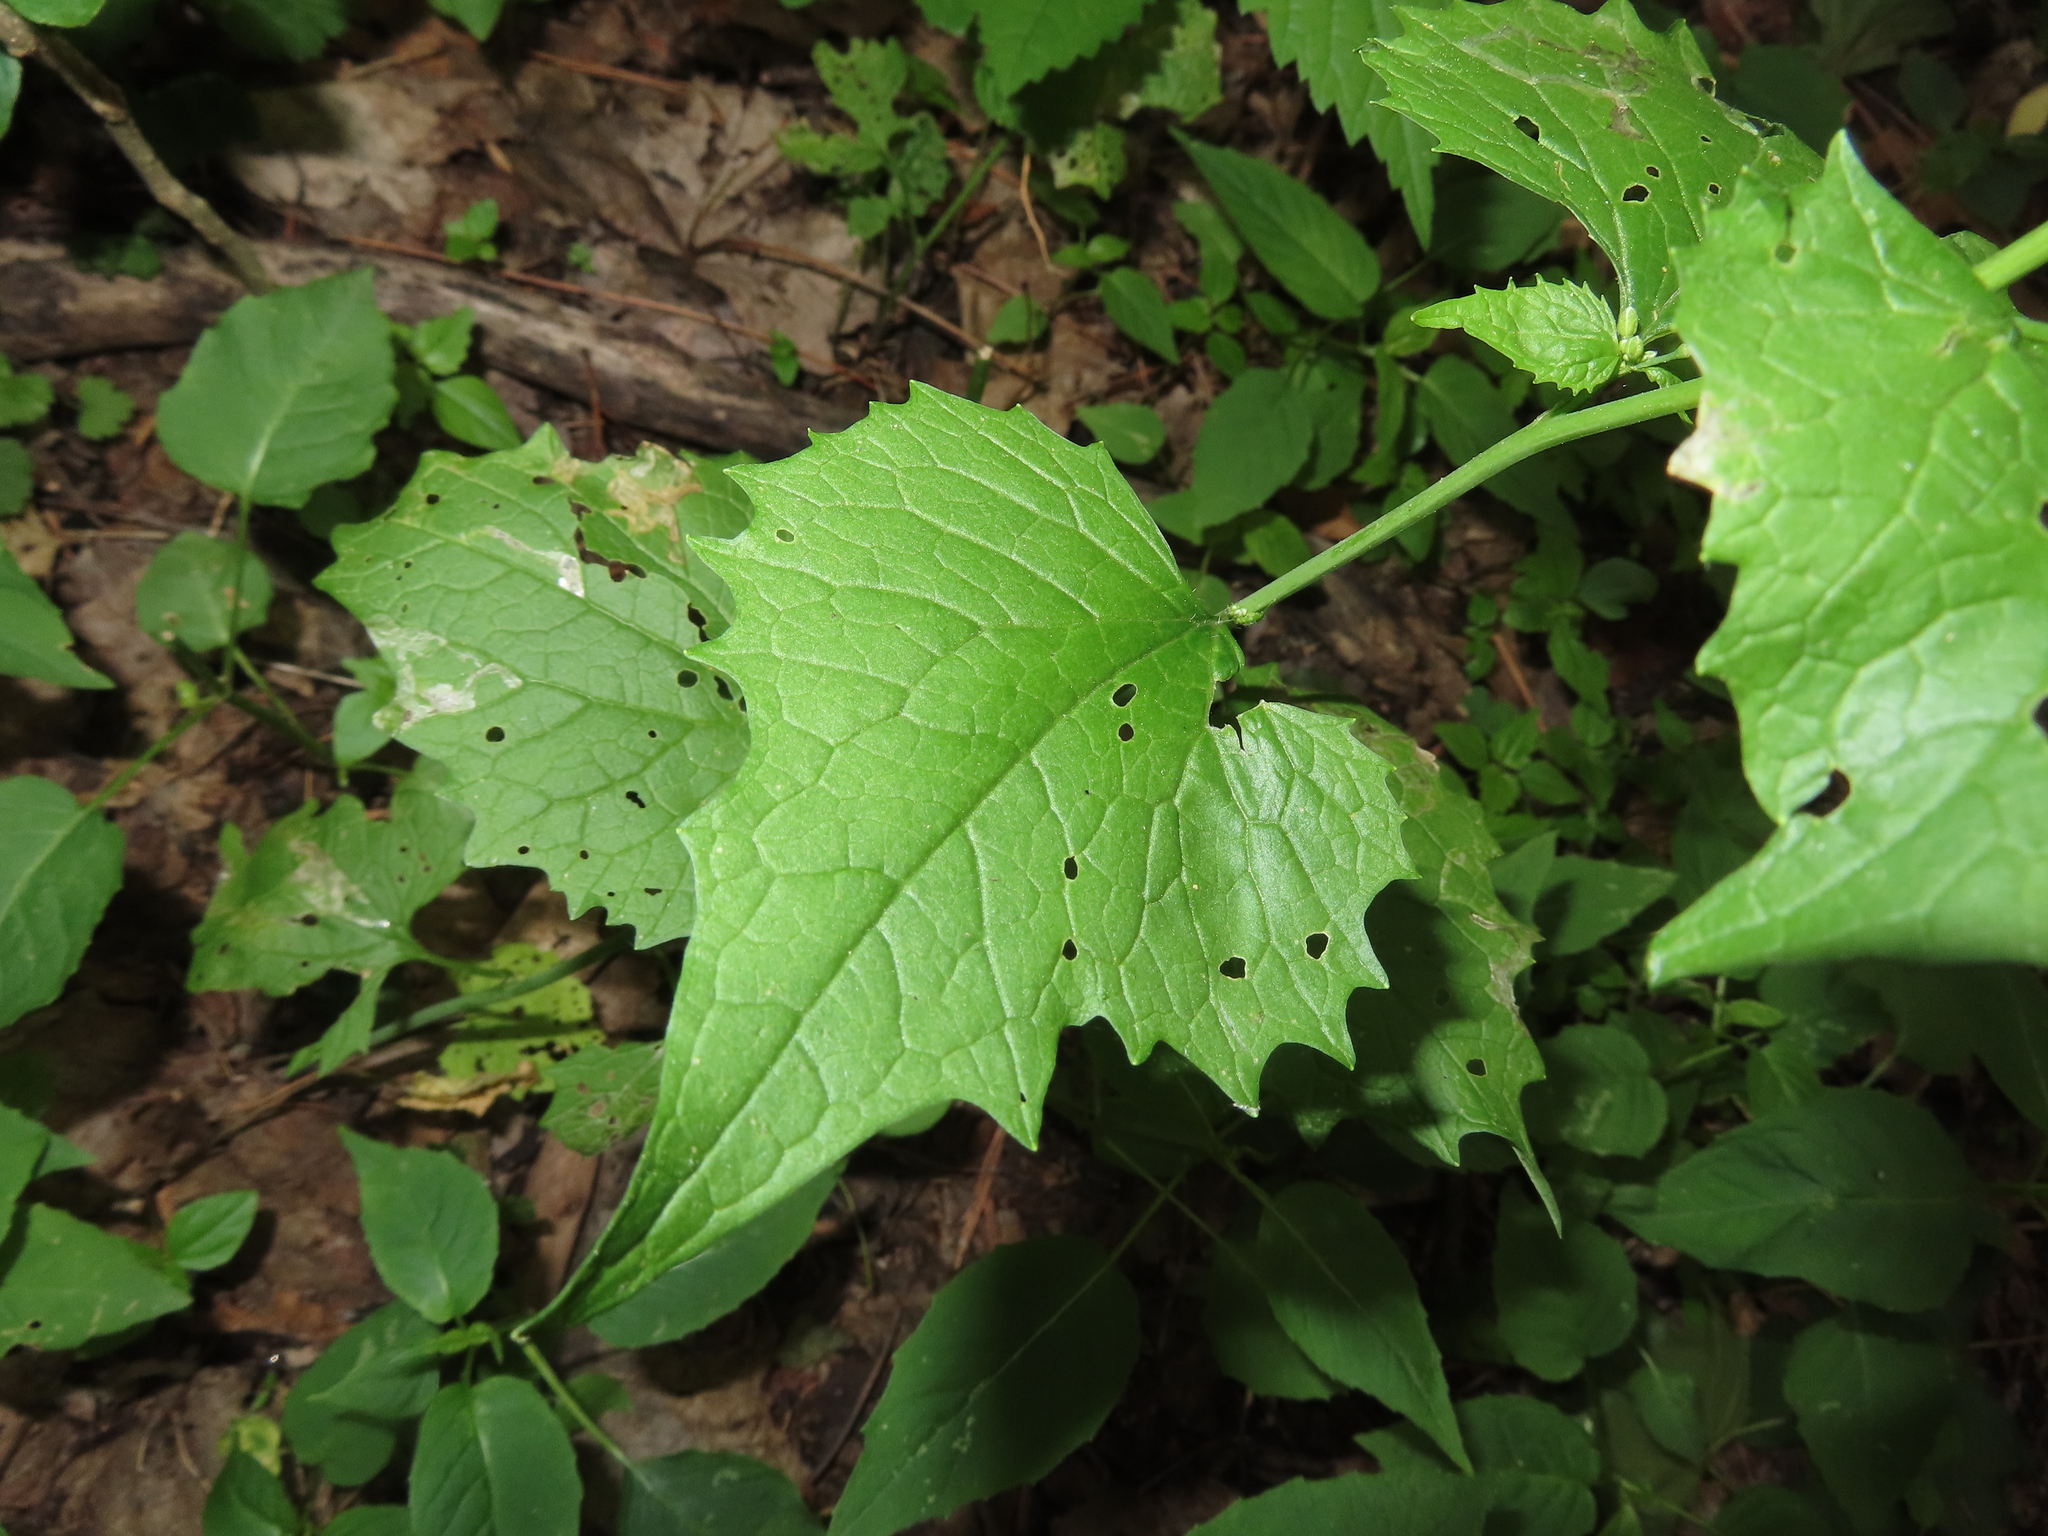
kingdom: Plantae
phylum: Tracheophyta
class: Magnoliopsida
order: Brassicales
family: Brassicaceae
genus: Alliaria
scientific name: Alliaria petiolata
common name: Garlic mustard
